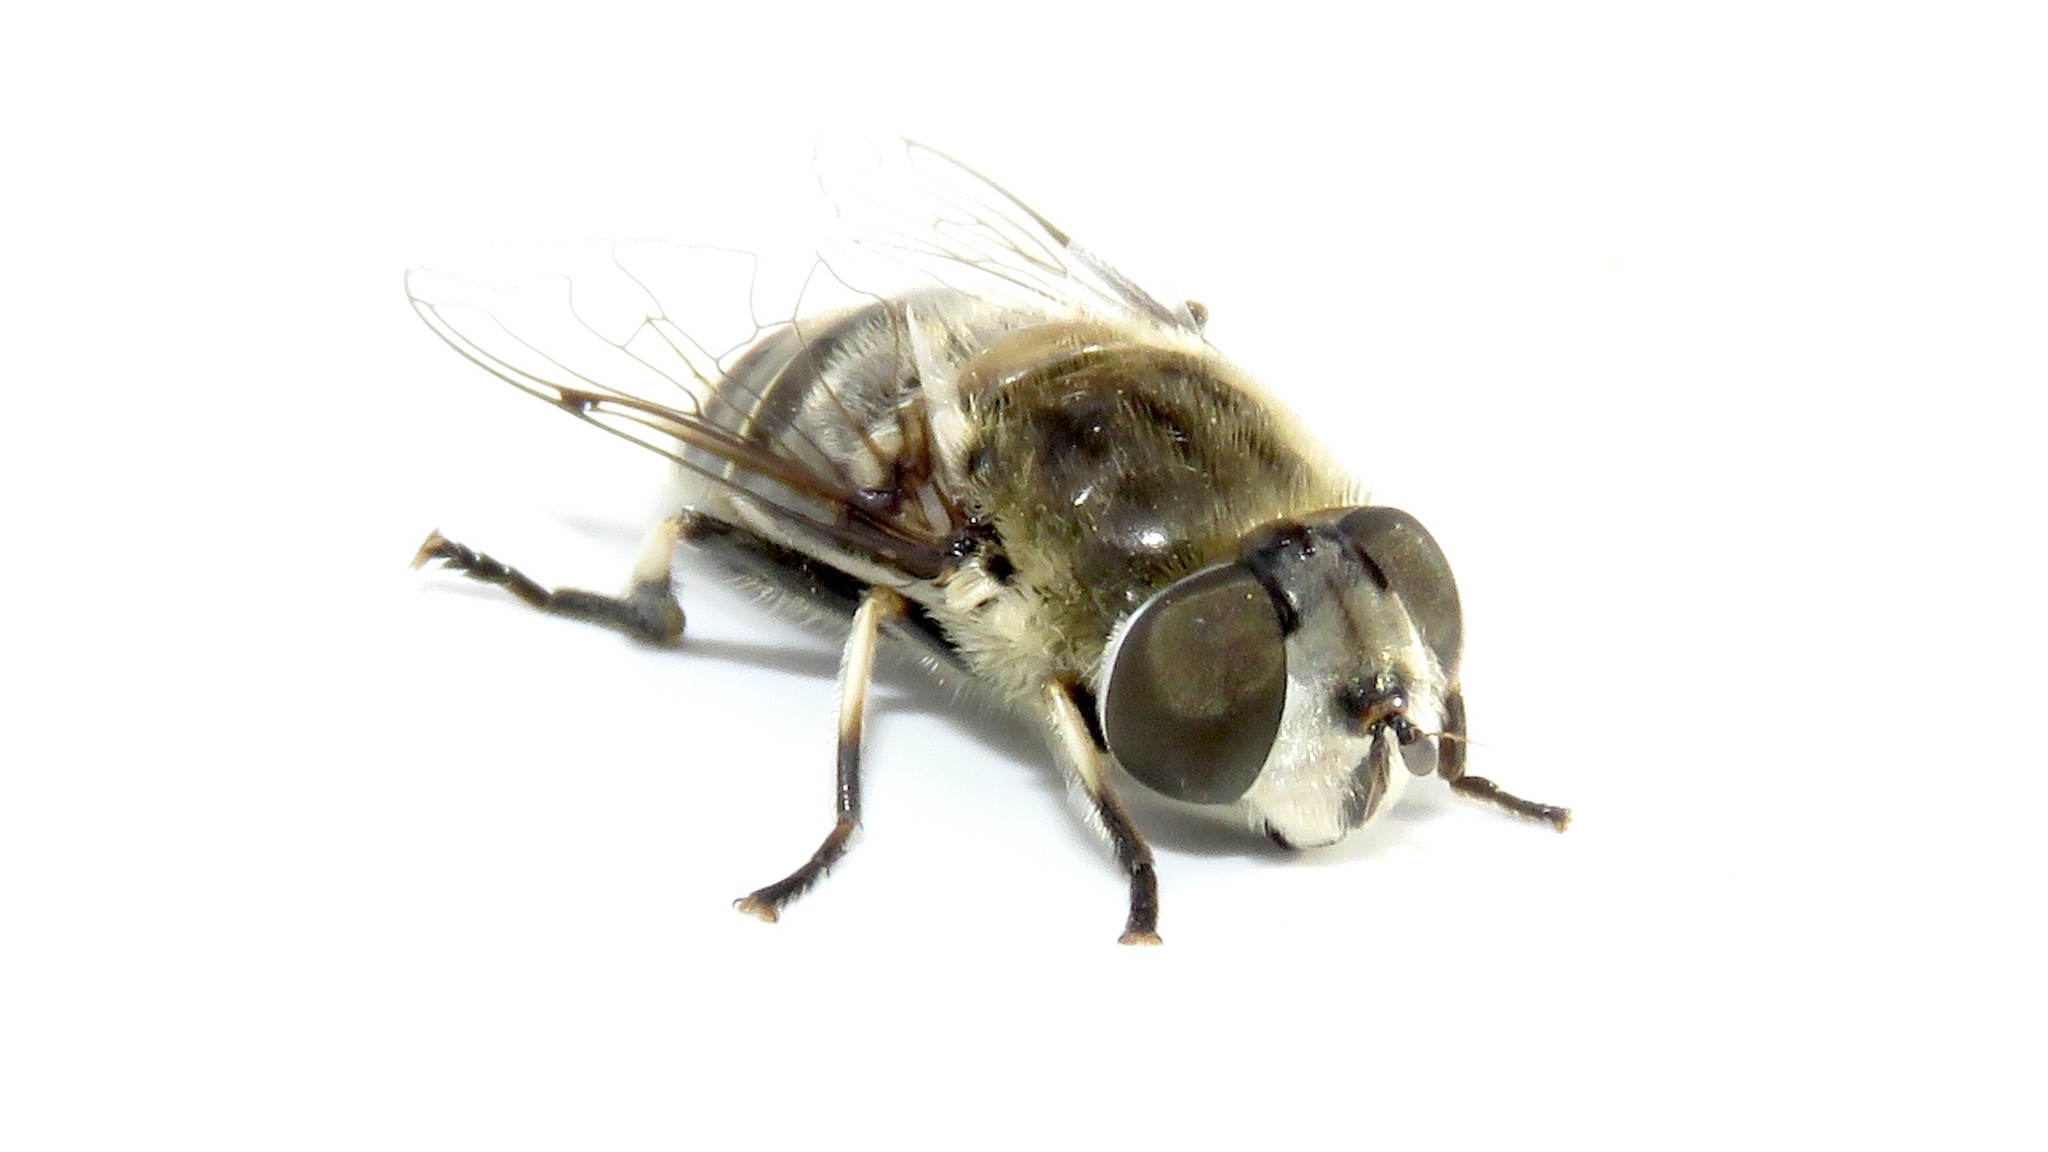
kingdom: Animalia
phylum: Arthropoda
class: Insecta
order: Diptera
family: Syrphidae
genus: Eristalis
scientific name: Eristalis dimidiata
